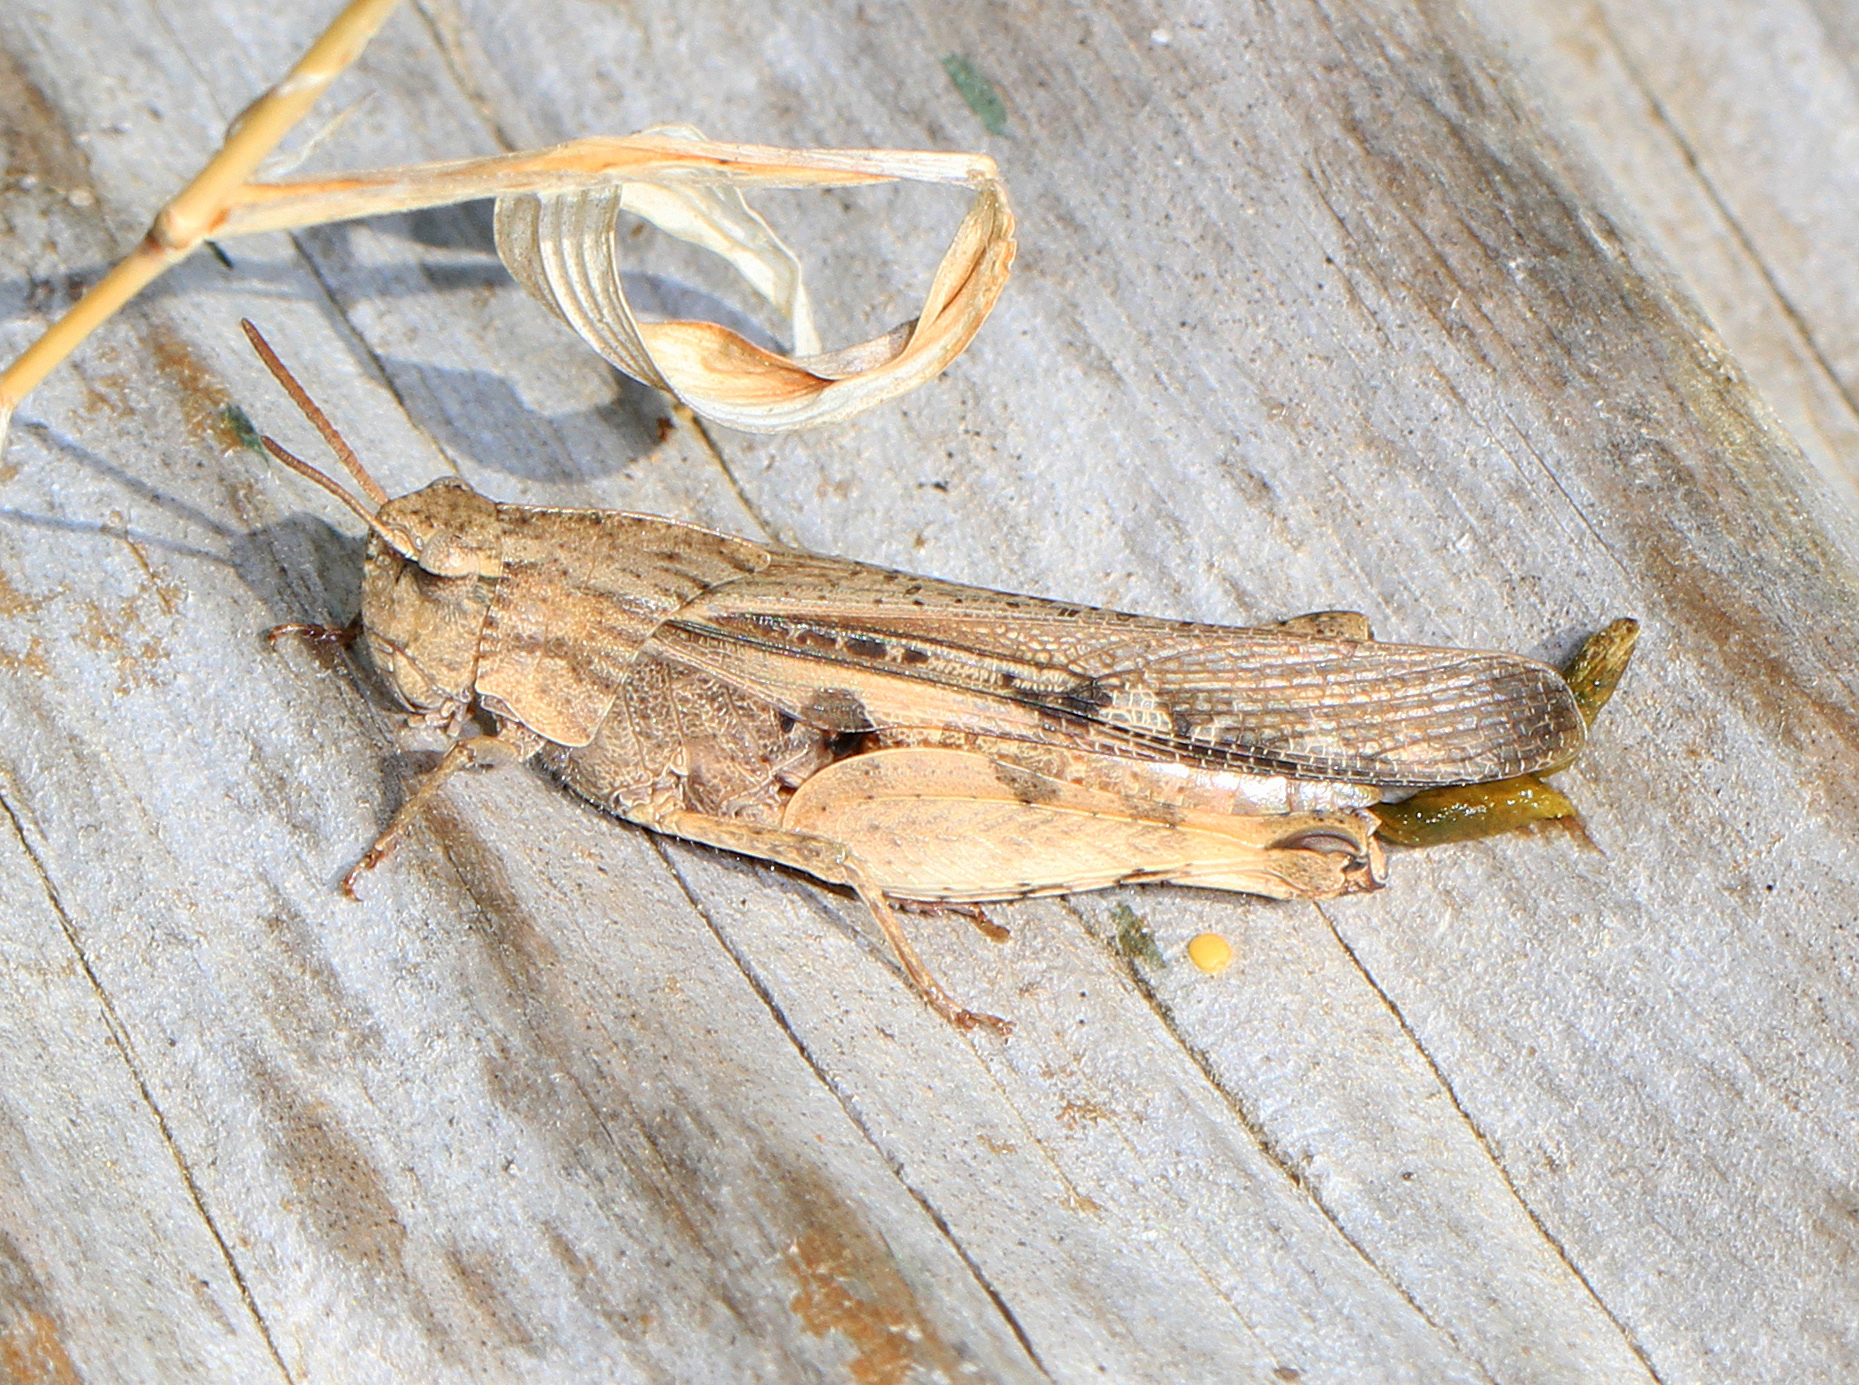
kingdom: Animalia
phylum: Arthropoda
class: Insecta
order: Orthoptera
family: Acrididae
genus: Chortophaga
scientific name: Chortophaga viridifasciata
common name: Green-striped grasshopper
